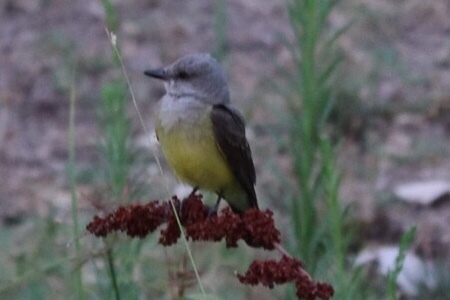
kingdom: Animalia
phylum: Chordata
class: Aves
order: Passeriformes
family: Tyrannidae
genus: Tyrannus
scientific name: Tyrannus verticalis
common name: Western kingbird
